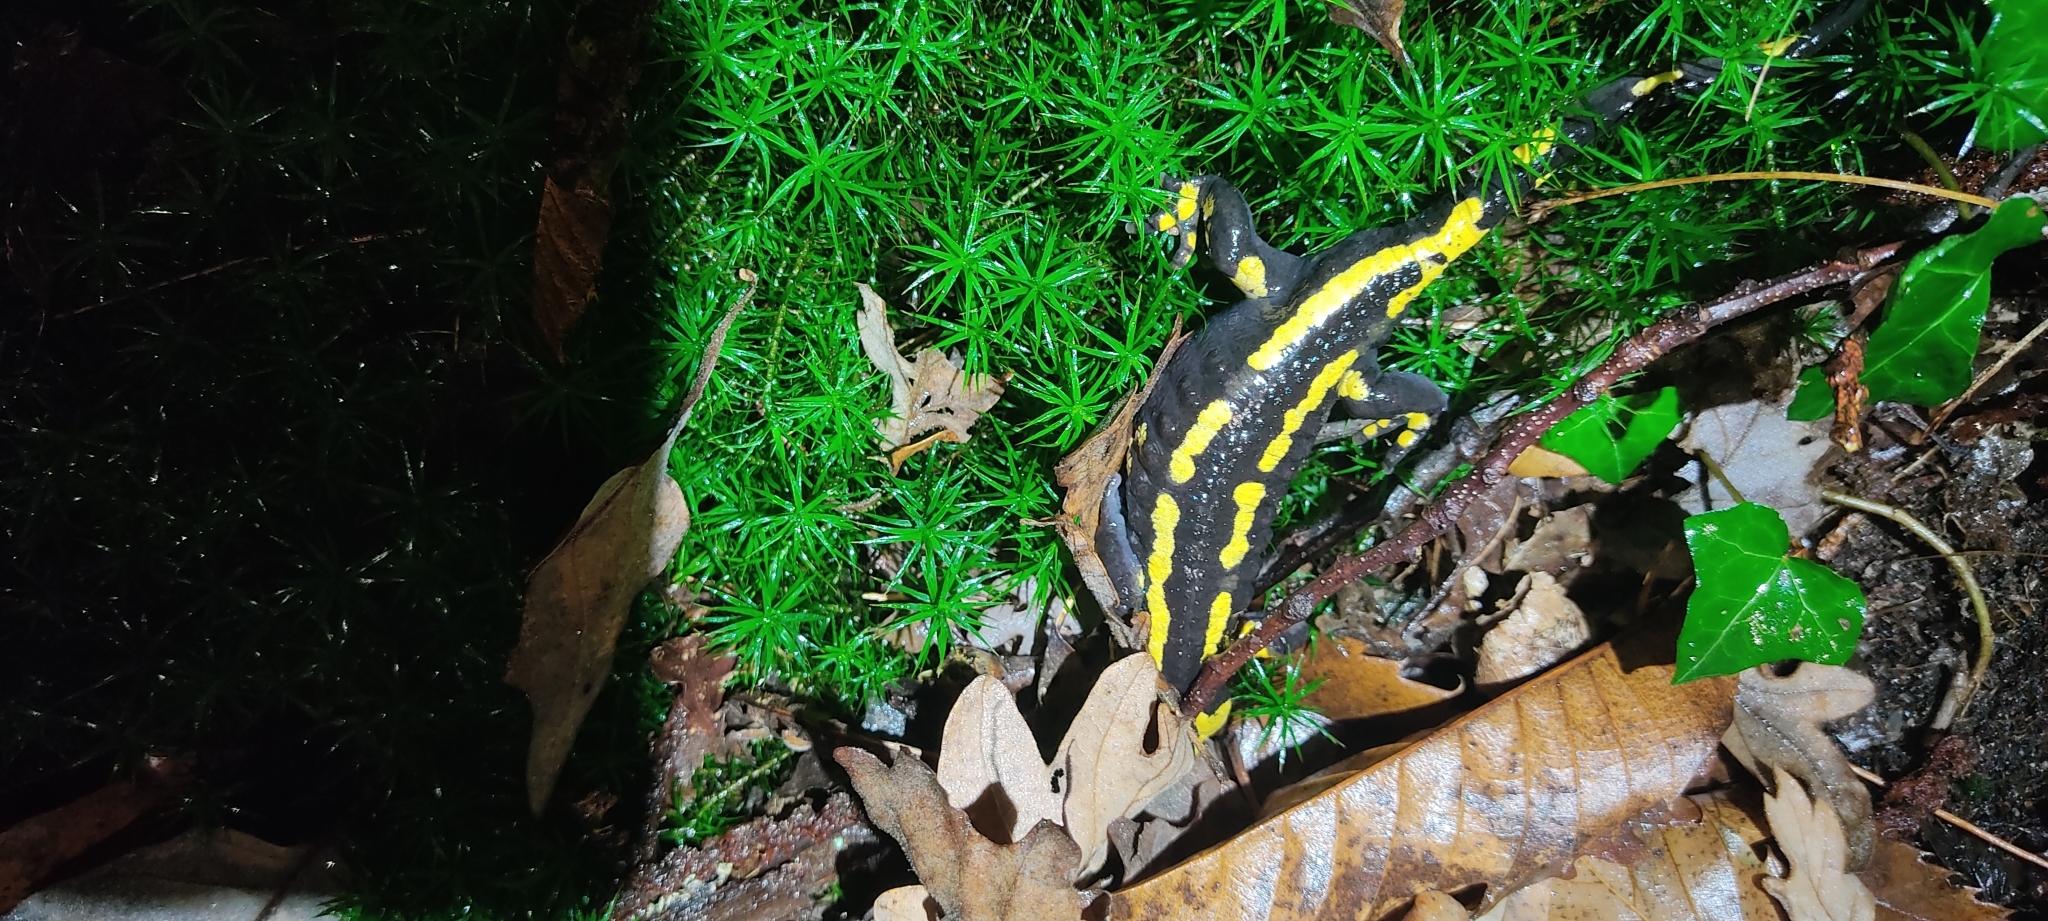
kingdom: Animalia
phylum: Chordata
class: Amphibia
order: Caudata
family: Salamandridae
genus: Salamandra
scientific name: Salamandra salamandra
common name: Fire salamander
